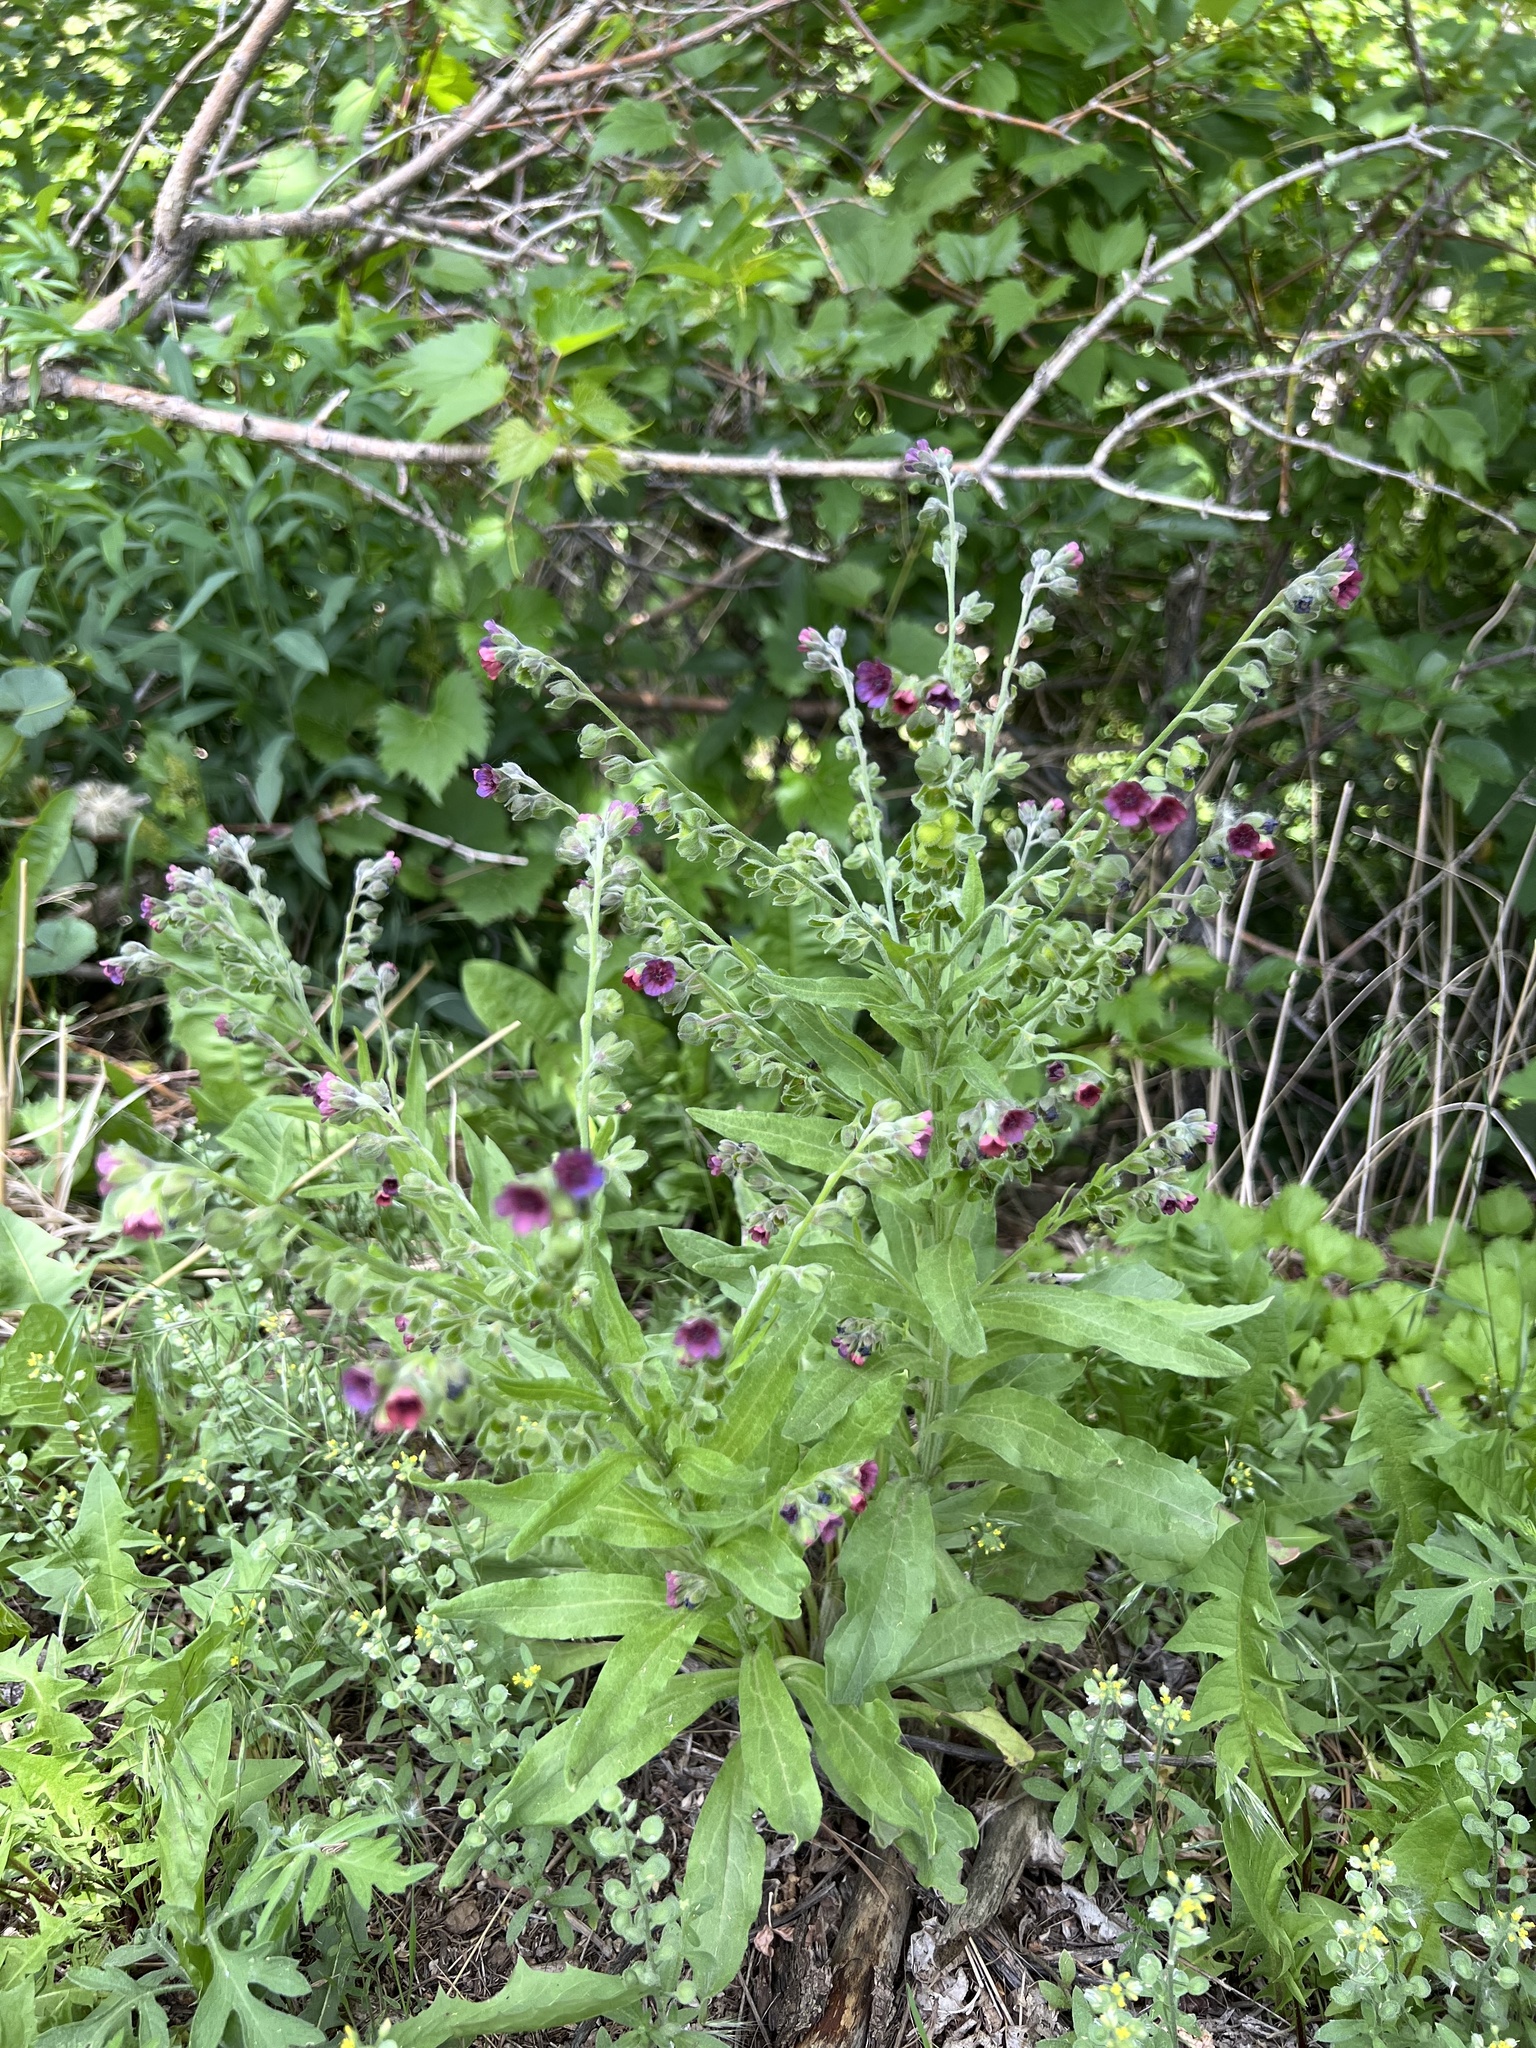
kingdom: Plantae
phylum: Tracheophyta
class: Magnoliopsida
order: Boraginales
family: Boraginaceae
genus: Cynoglossum
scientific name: Cynoglossum officinale
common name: Hound's-tongue
